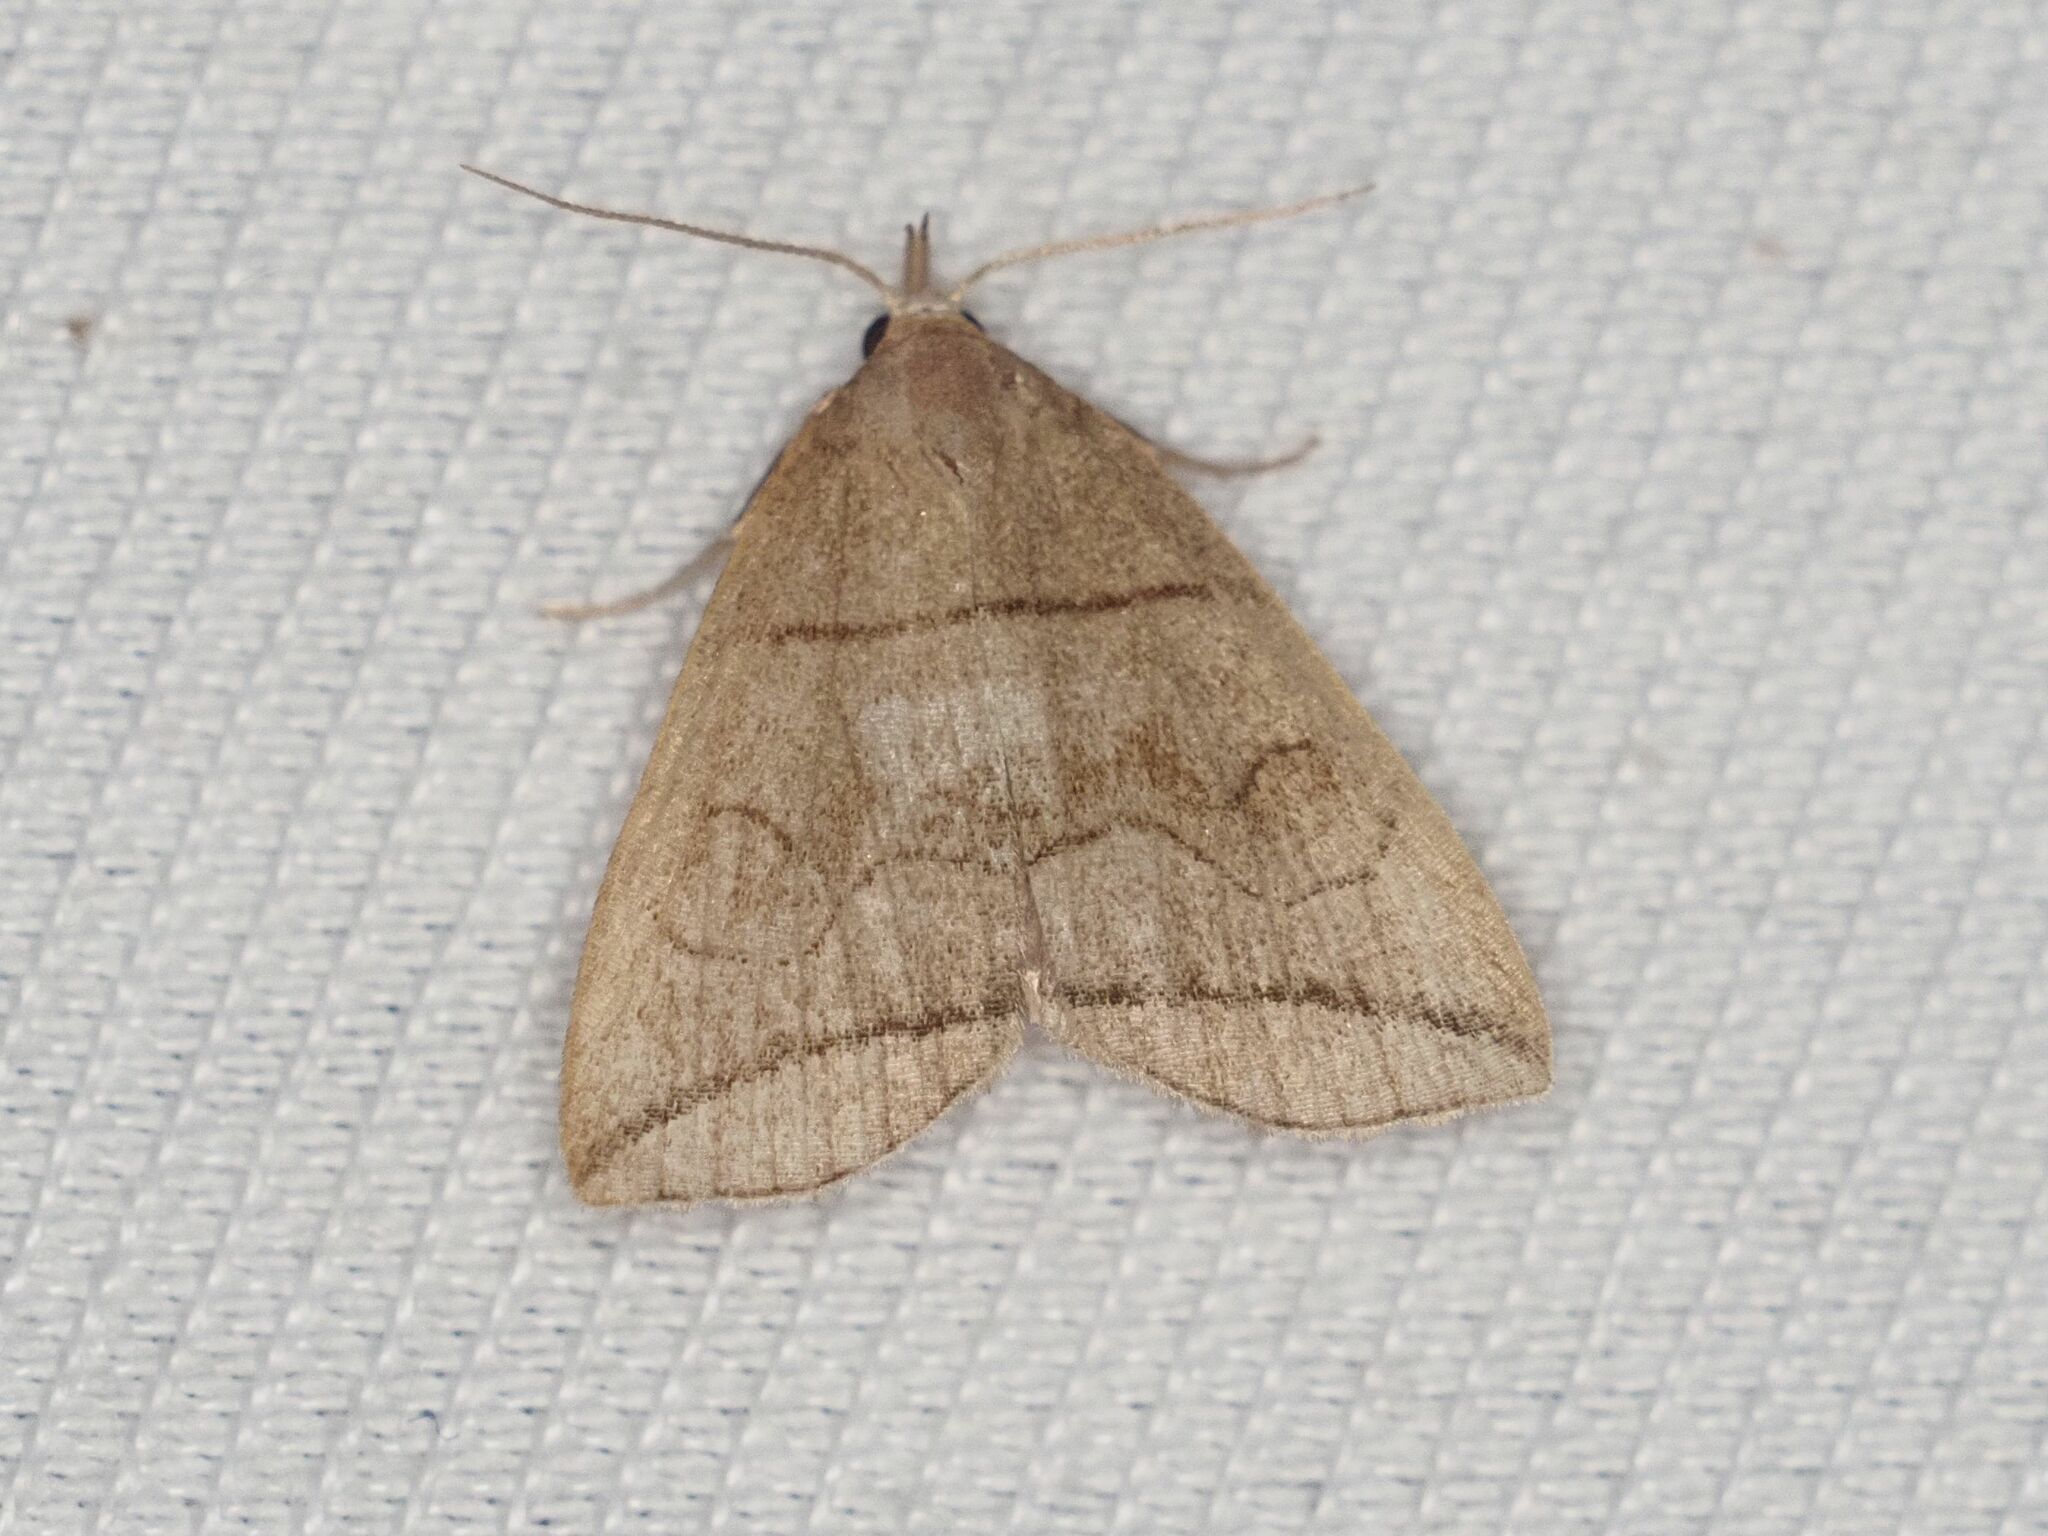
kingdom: Animalia
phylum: Arthropoda
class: Insecta
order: Lepidoptera
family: Erebidae
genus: Herminia
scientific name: Herminia grisealis
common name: Small fan-foot
